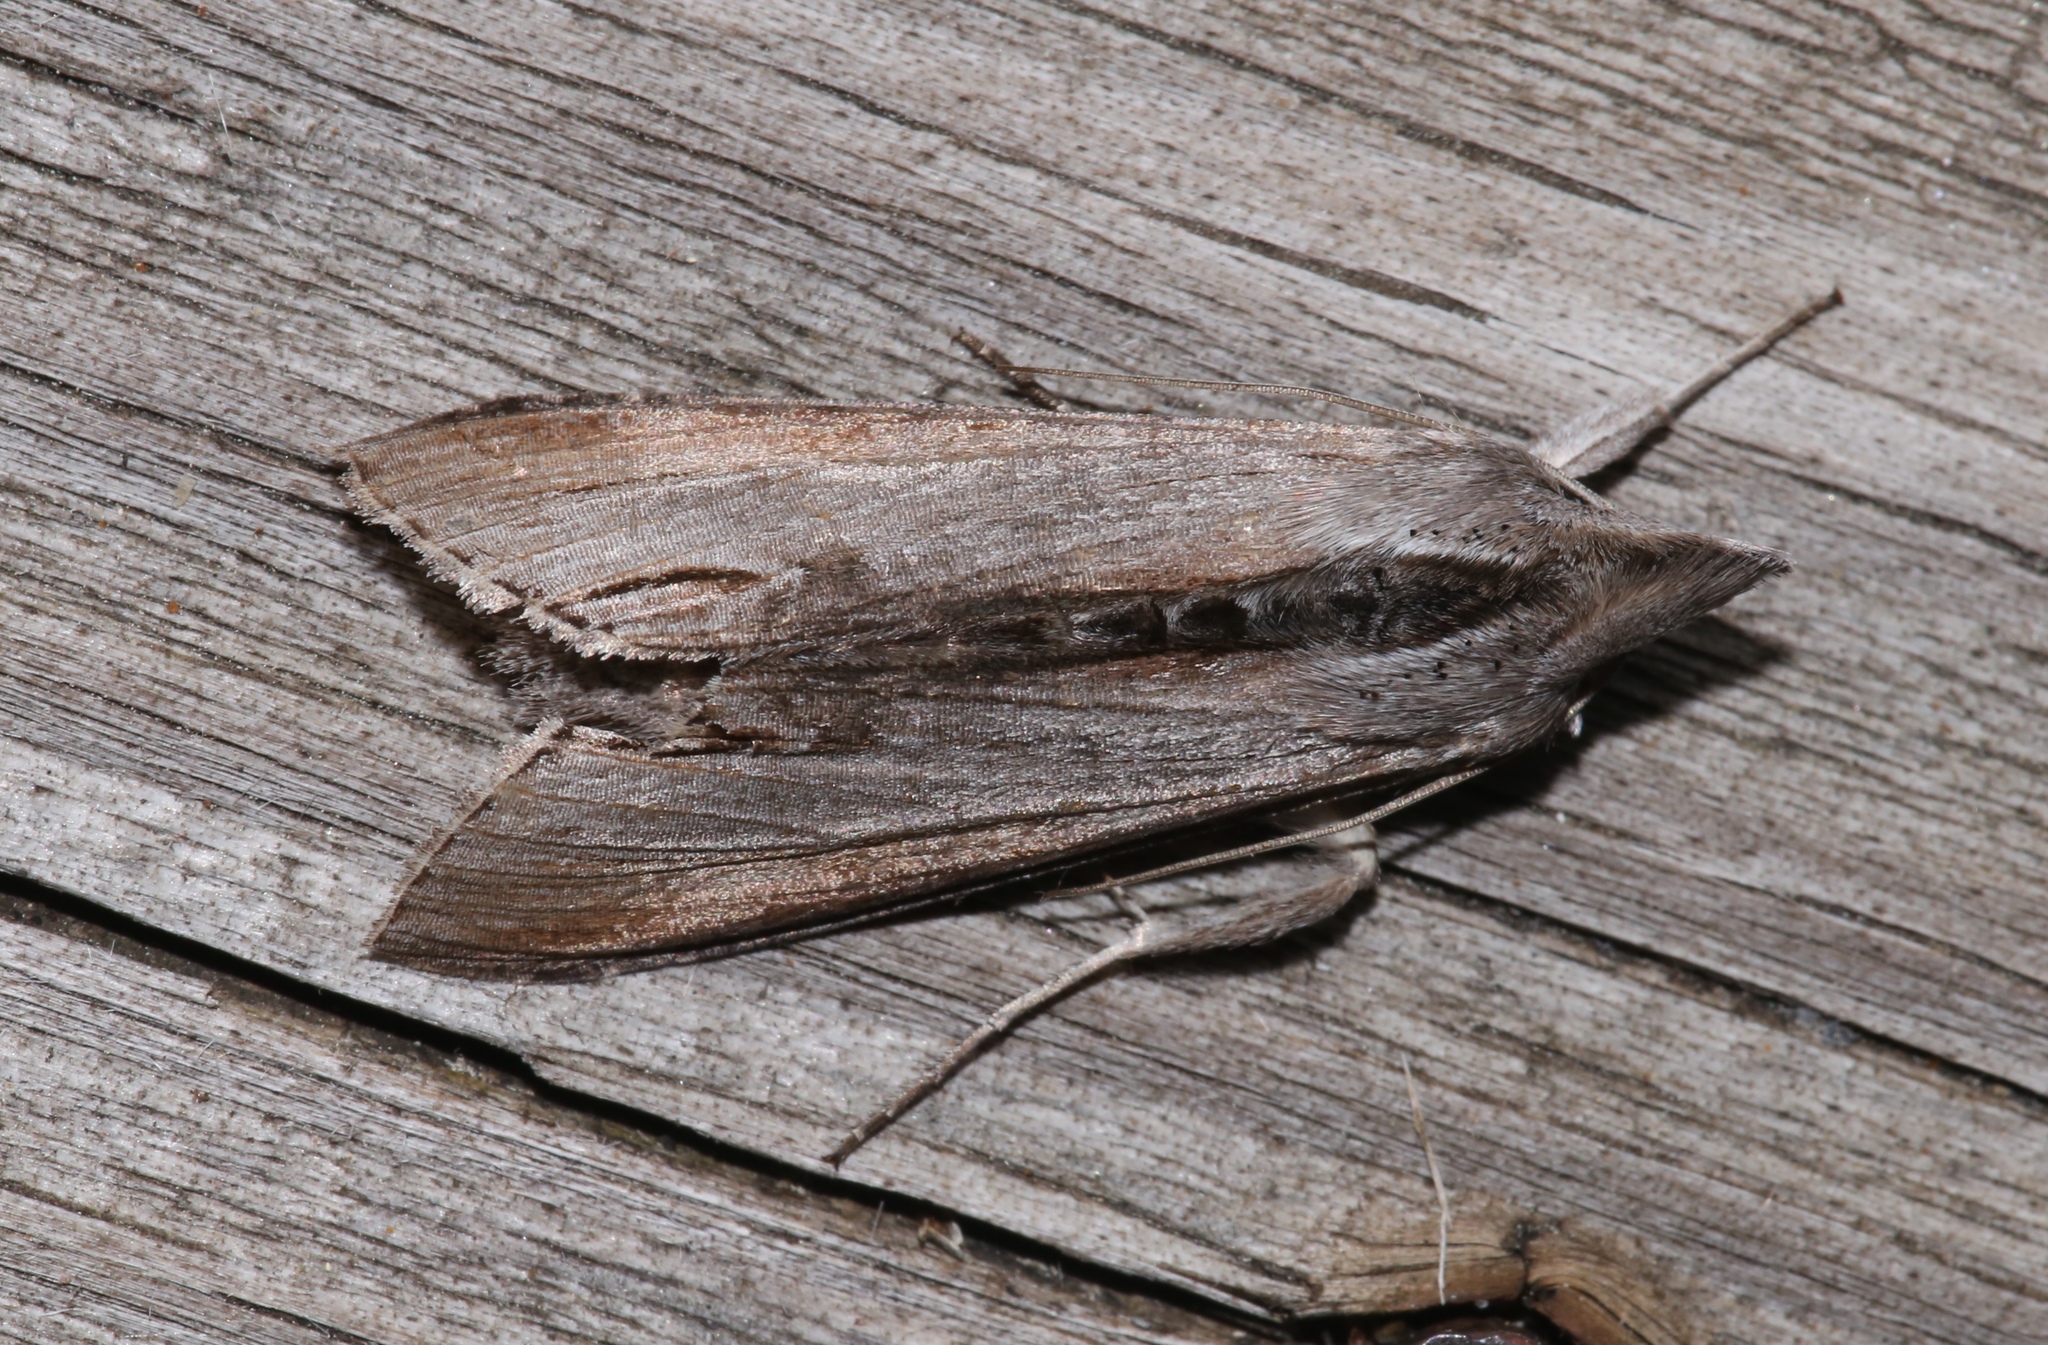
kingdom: Animalia
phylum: Arthropoda
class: Insecta
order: Lepidoptera
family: Noctuidae
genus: Cucullia
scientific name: Cucullia omissa
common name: Omitted cucullia moth
